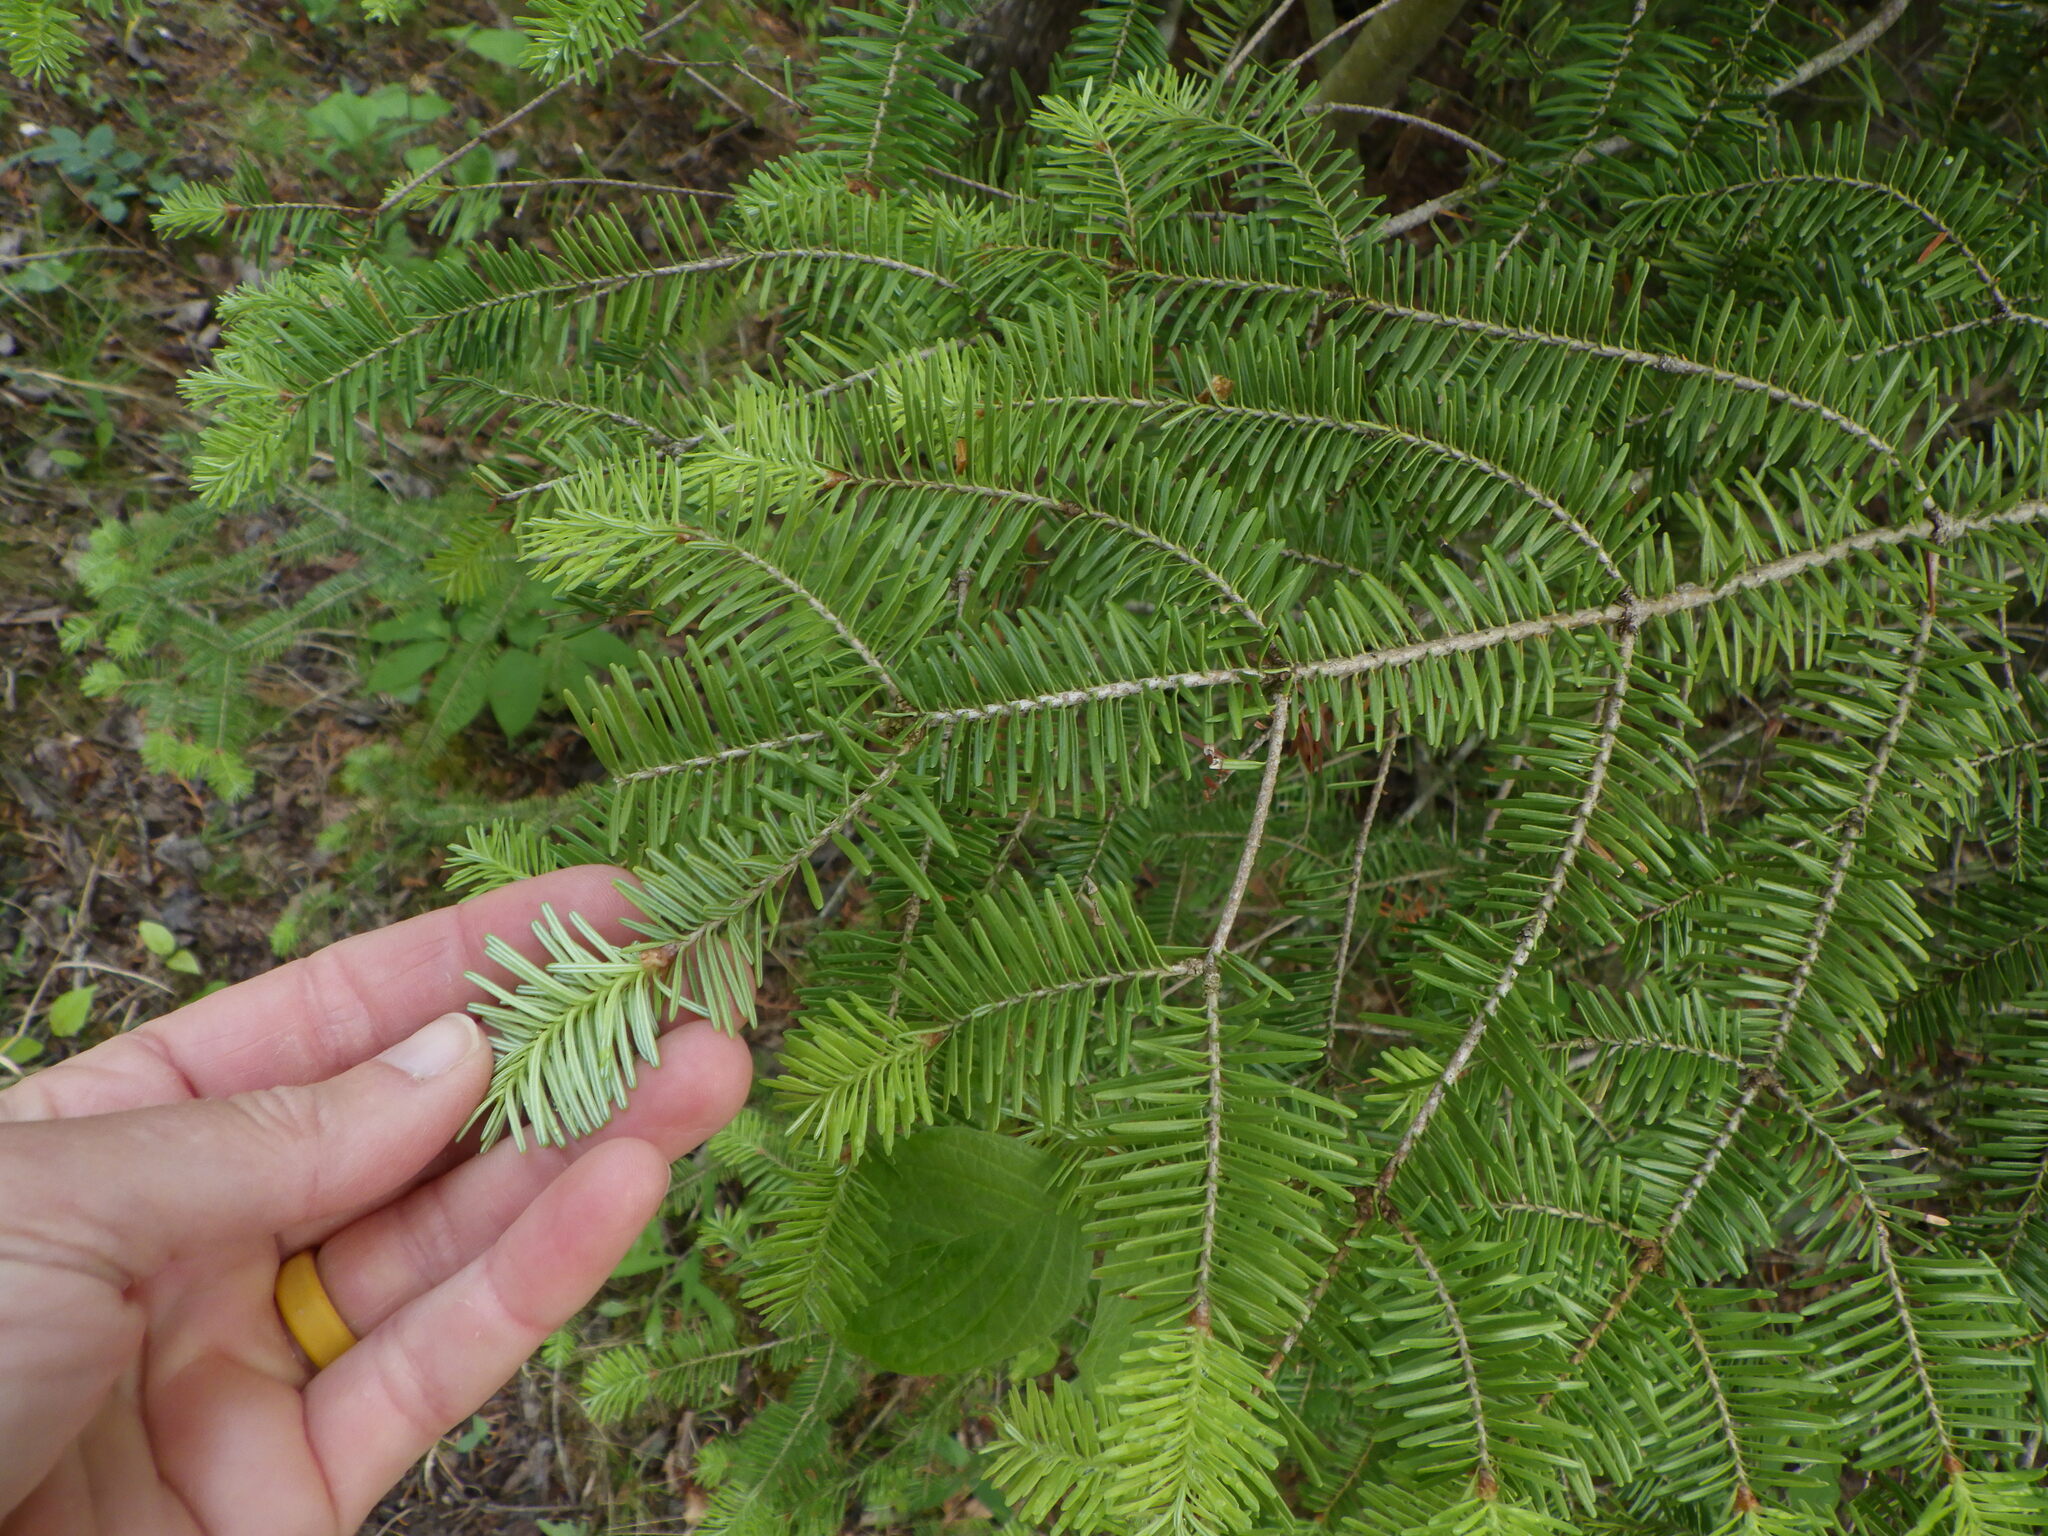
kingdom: Plantae
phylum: Tracheophyta
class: Pinopsida
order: Pinales
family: Pinaceae
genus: Abies
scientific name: Abies balsamea
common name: Balsam fir
